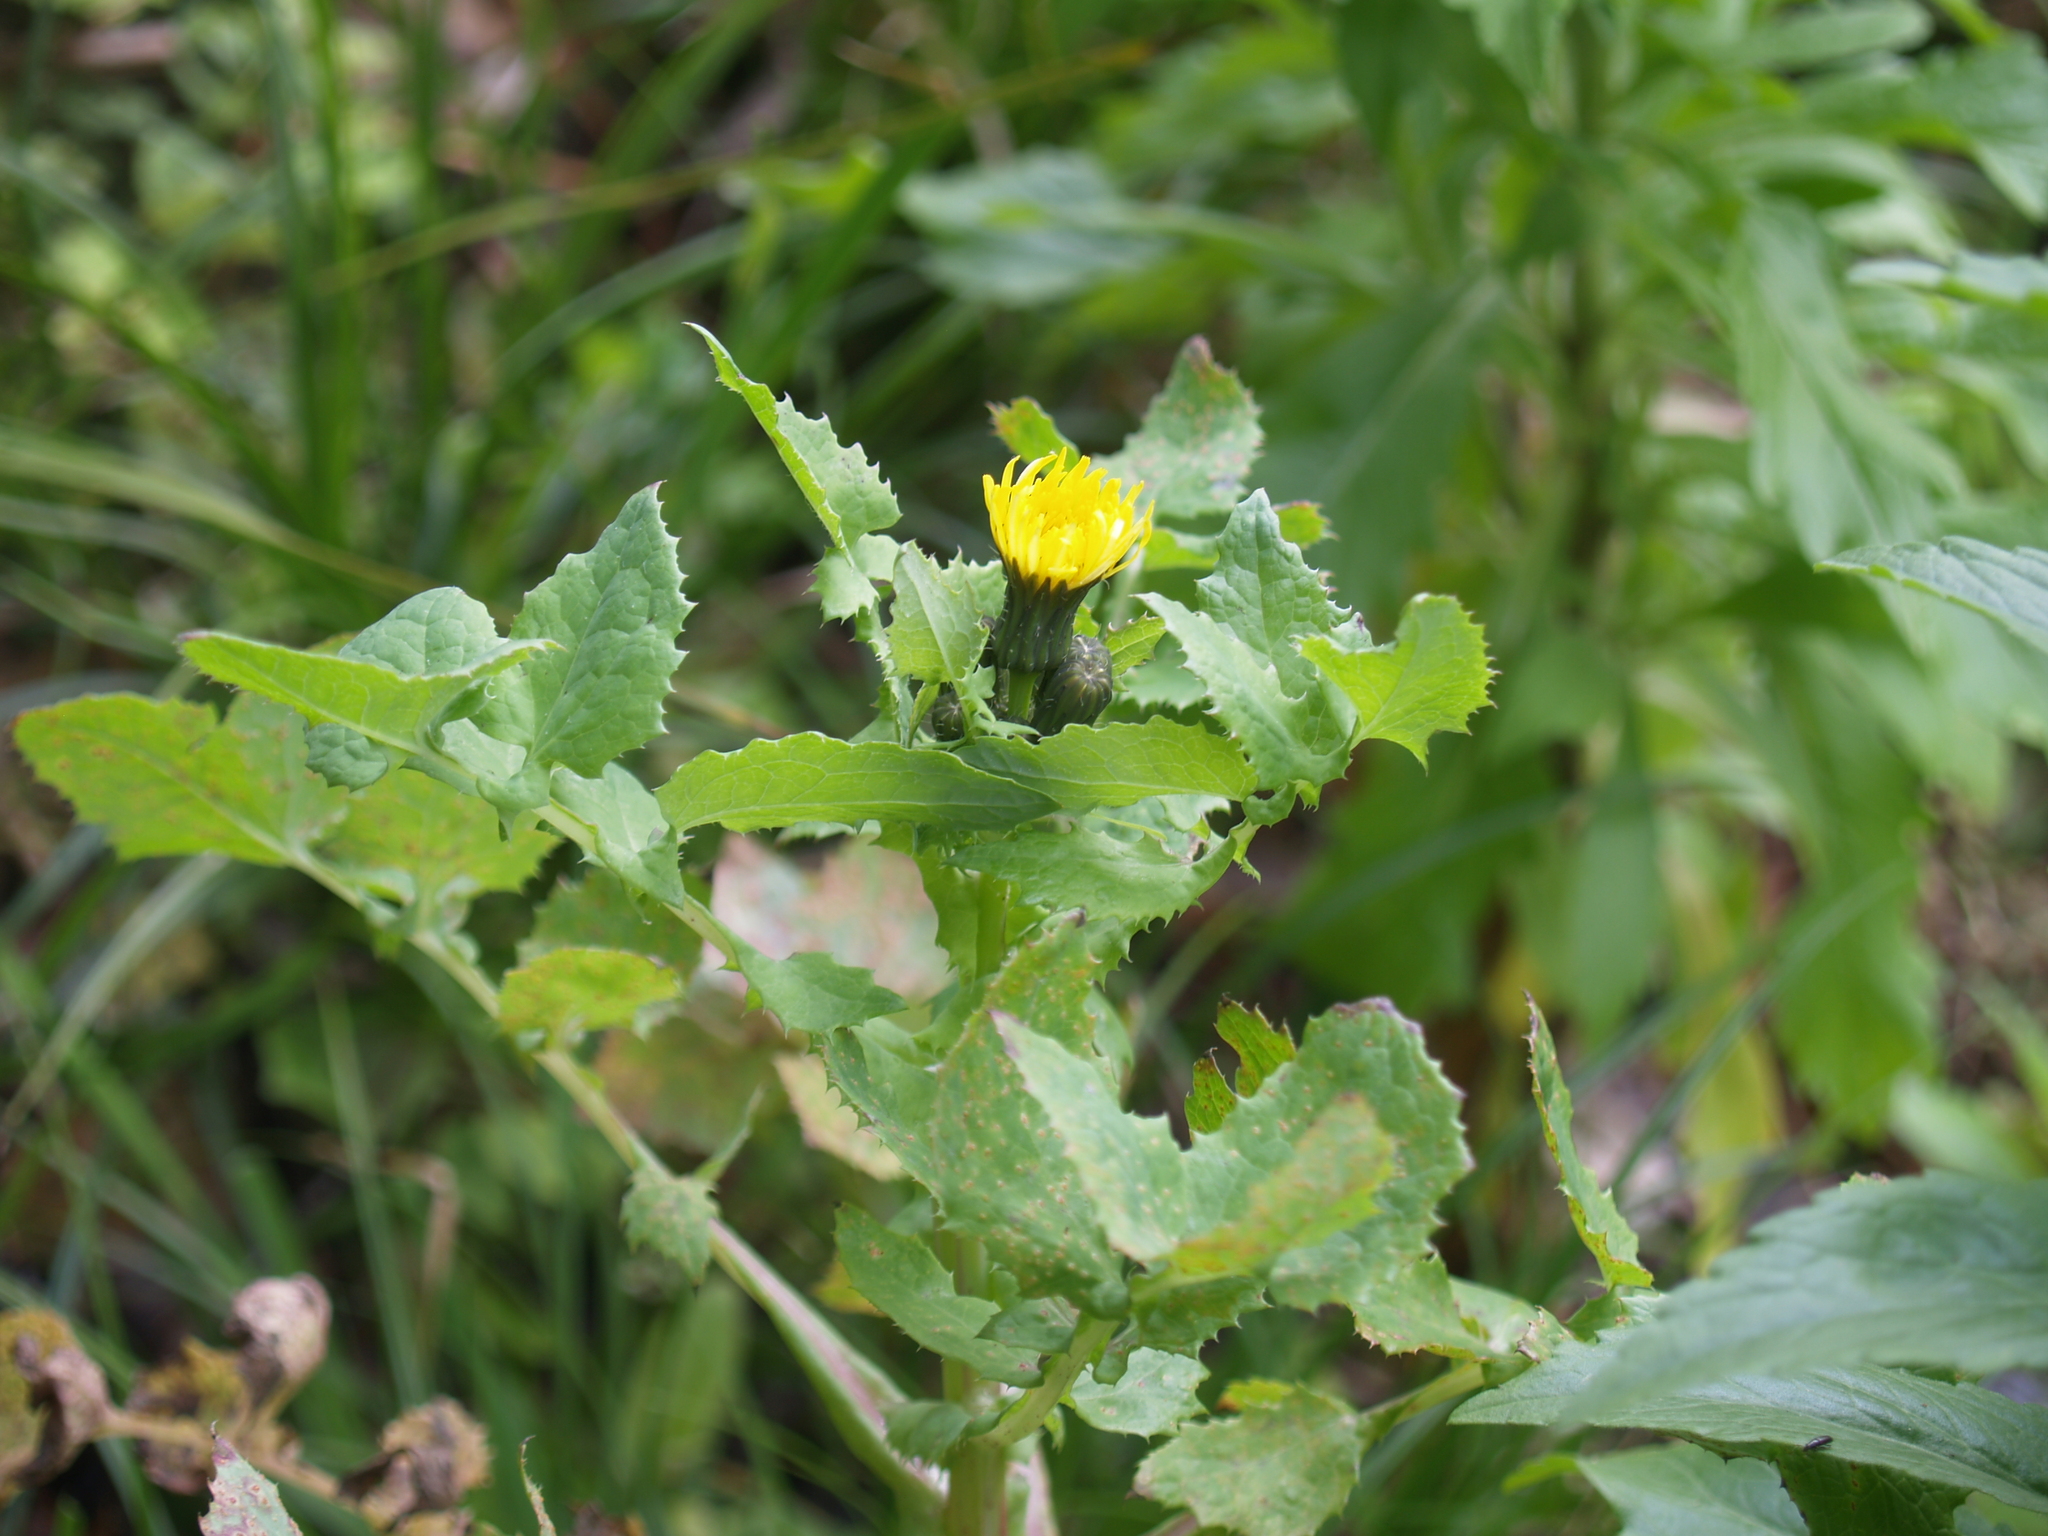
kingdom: Plantae
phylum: Tracheophyta
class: Magnoliopsida
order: Asterales
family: Asteraceae
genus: Sonchus
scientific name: Sonchus oleraceus
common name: Common sowthistle
